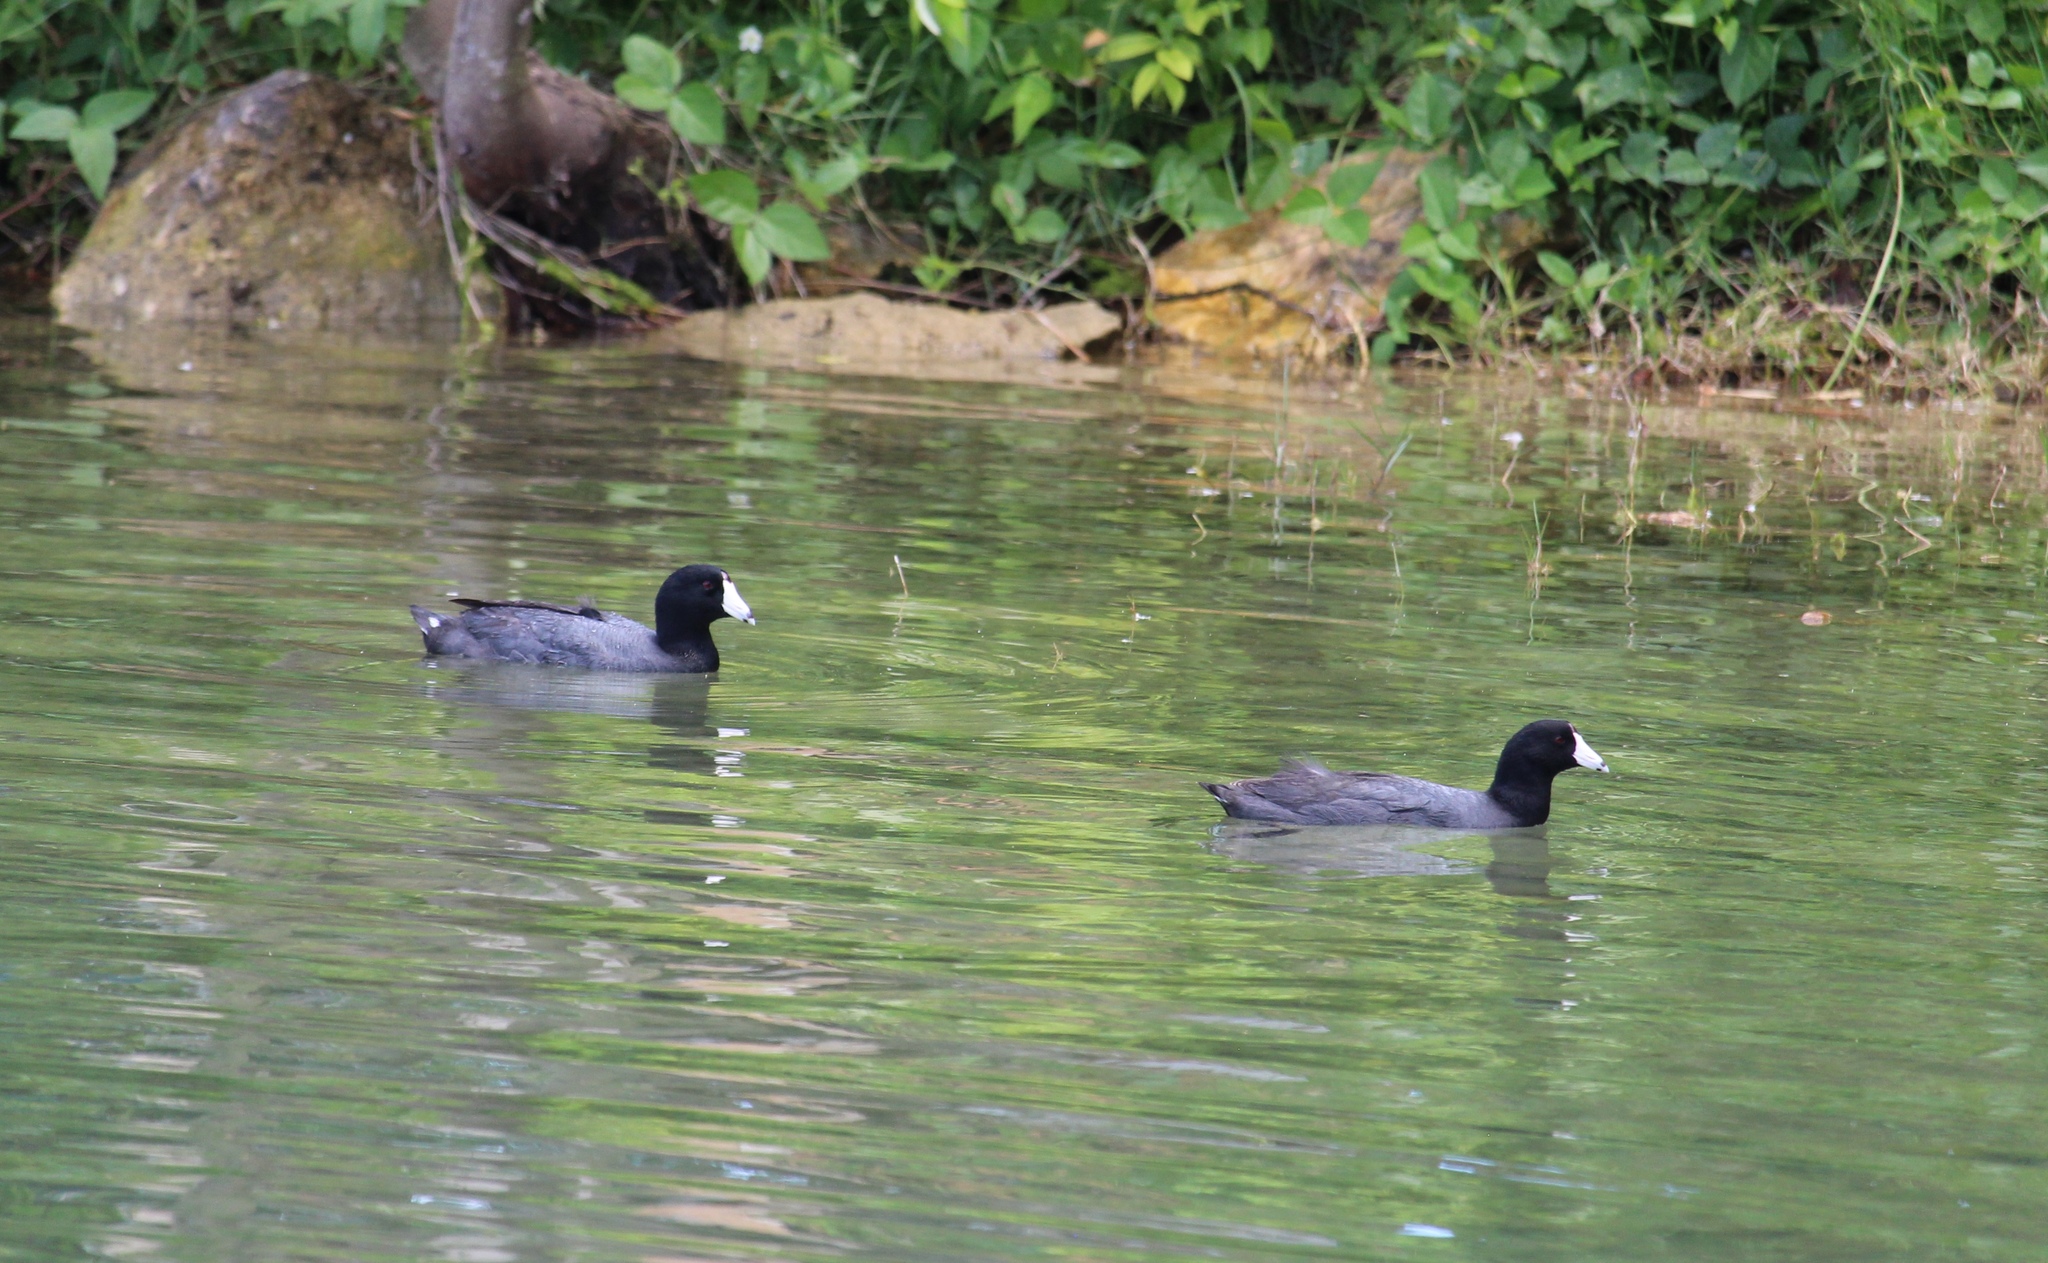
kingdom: Animalia
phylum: Chordata
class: Aves
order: Gruiformes
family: Rallidae
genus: Fulica
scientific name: Fulica americana
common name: American coot
